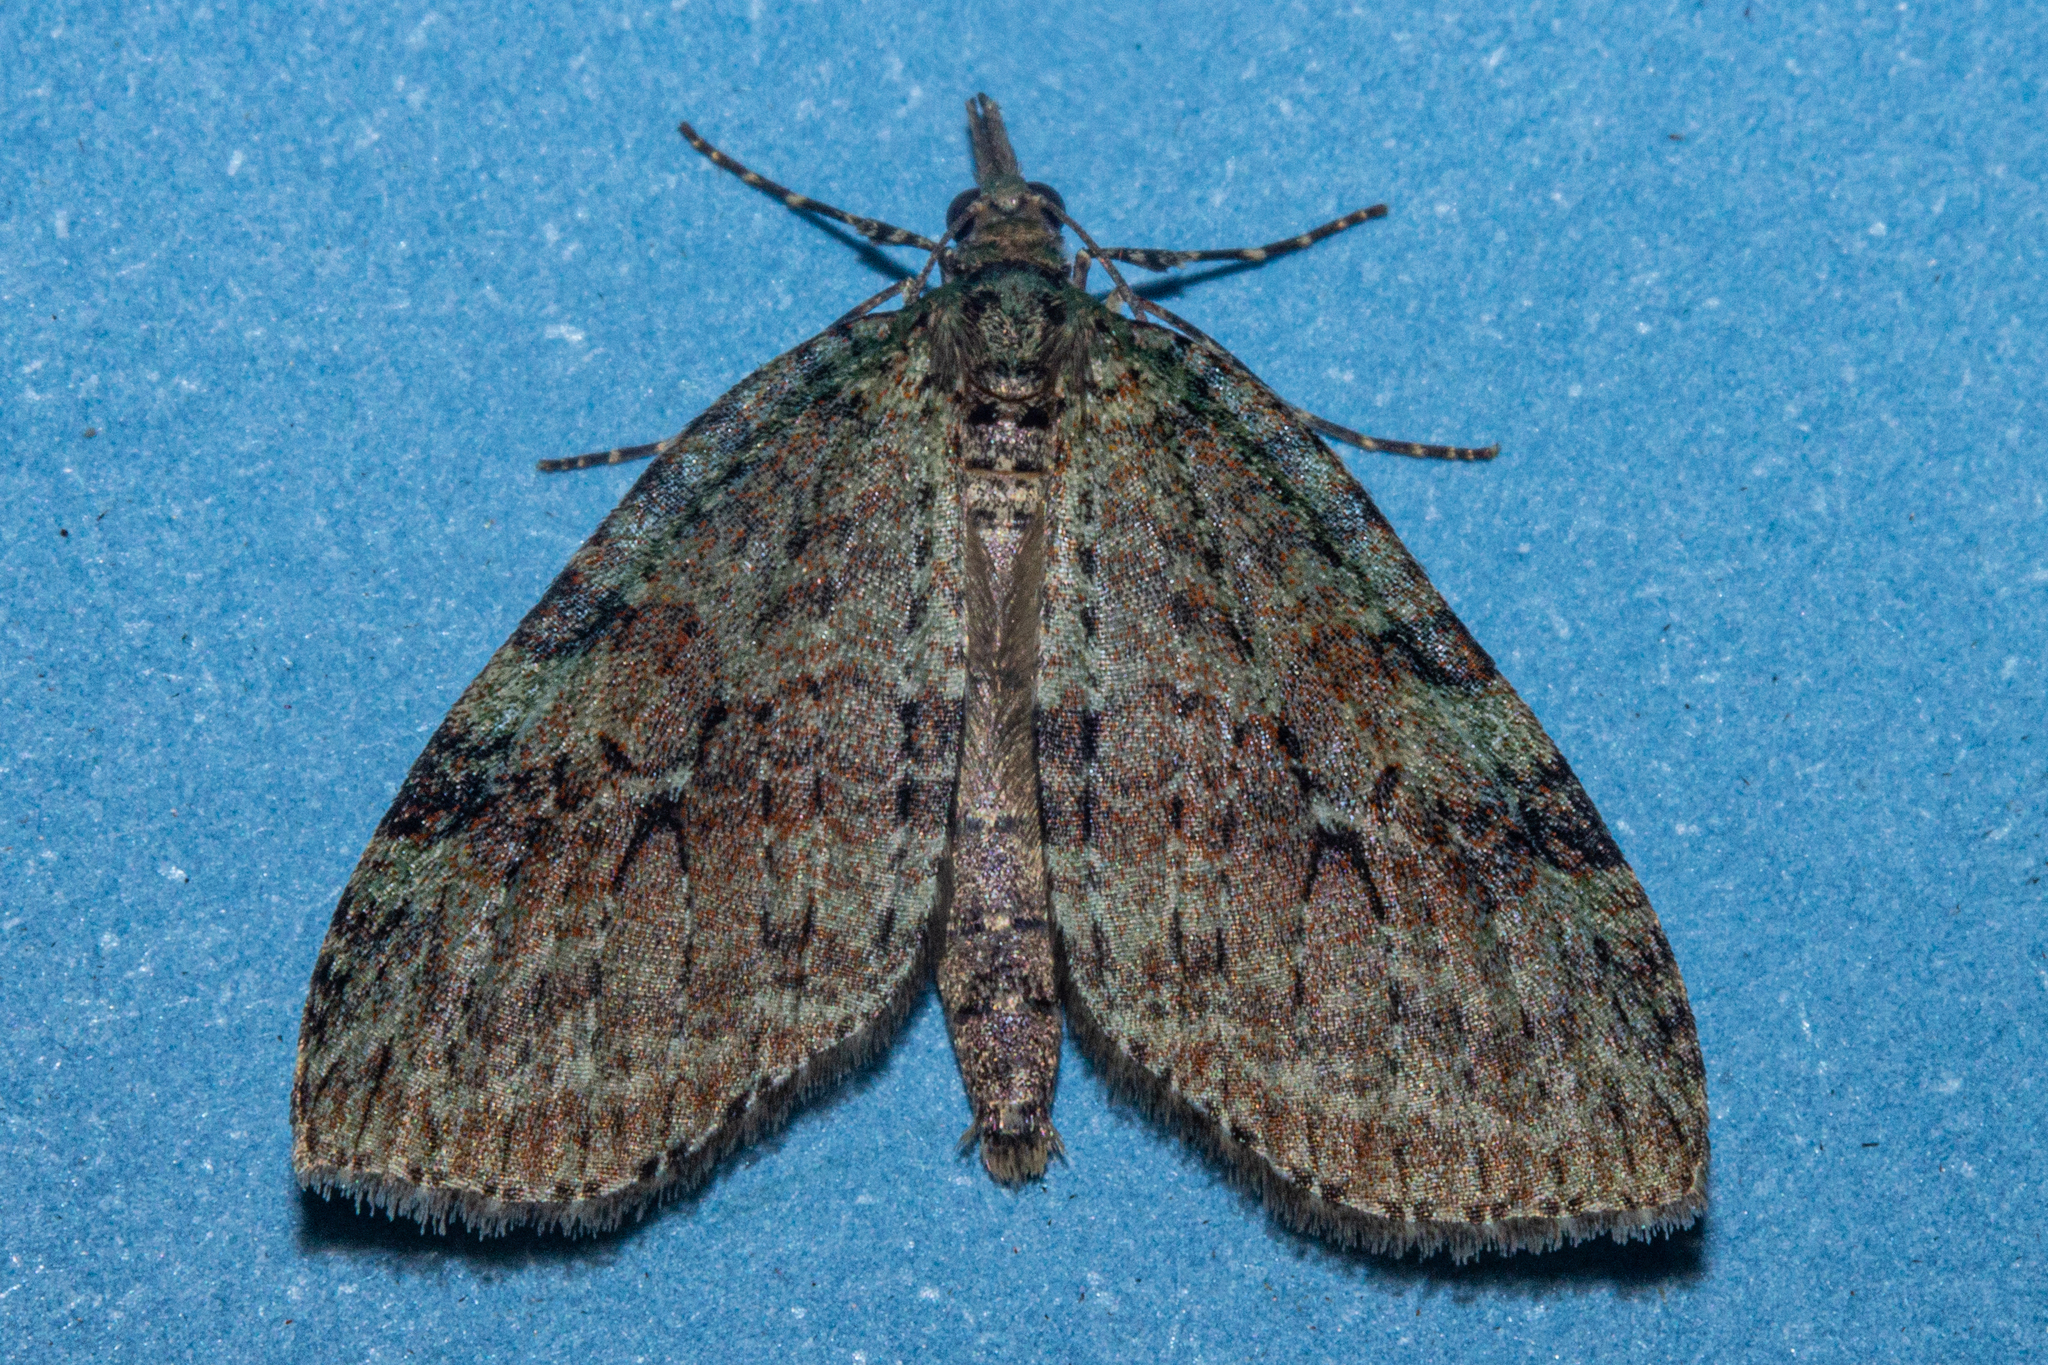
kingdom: Animalia
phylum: Arthropoda
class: Insecta
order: Lepidoptera
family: Geometridae
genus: Tatosoma
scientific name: Tatosoma transitaria
